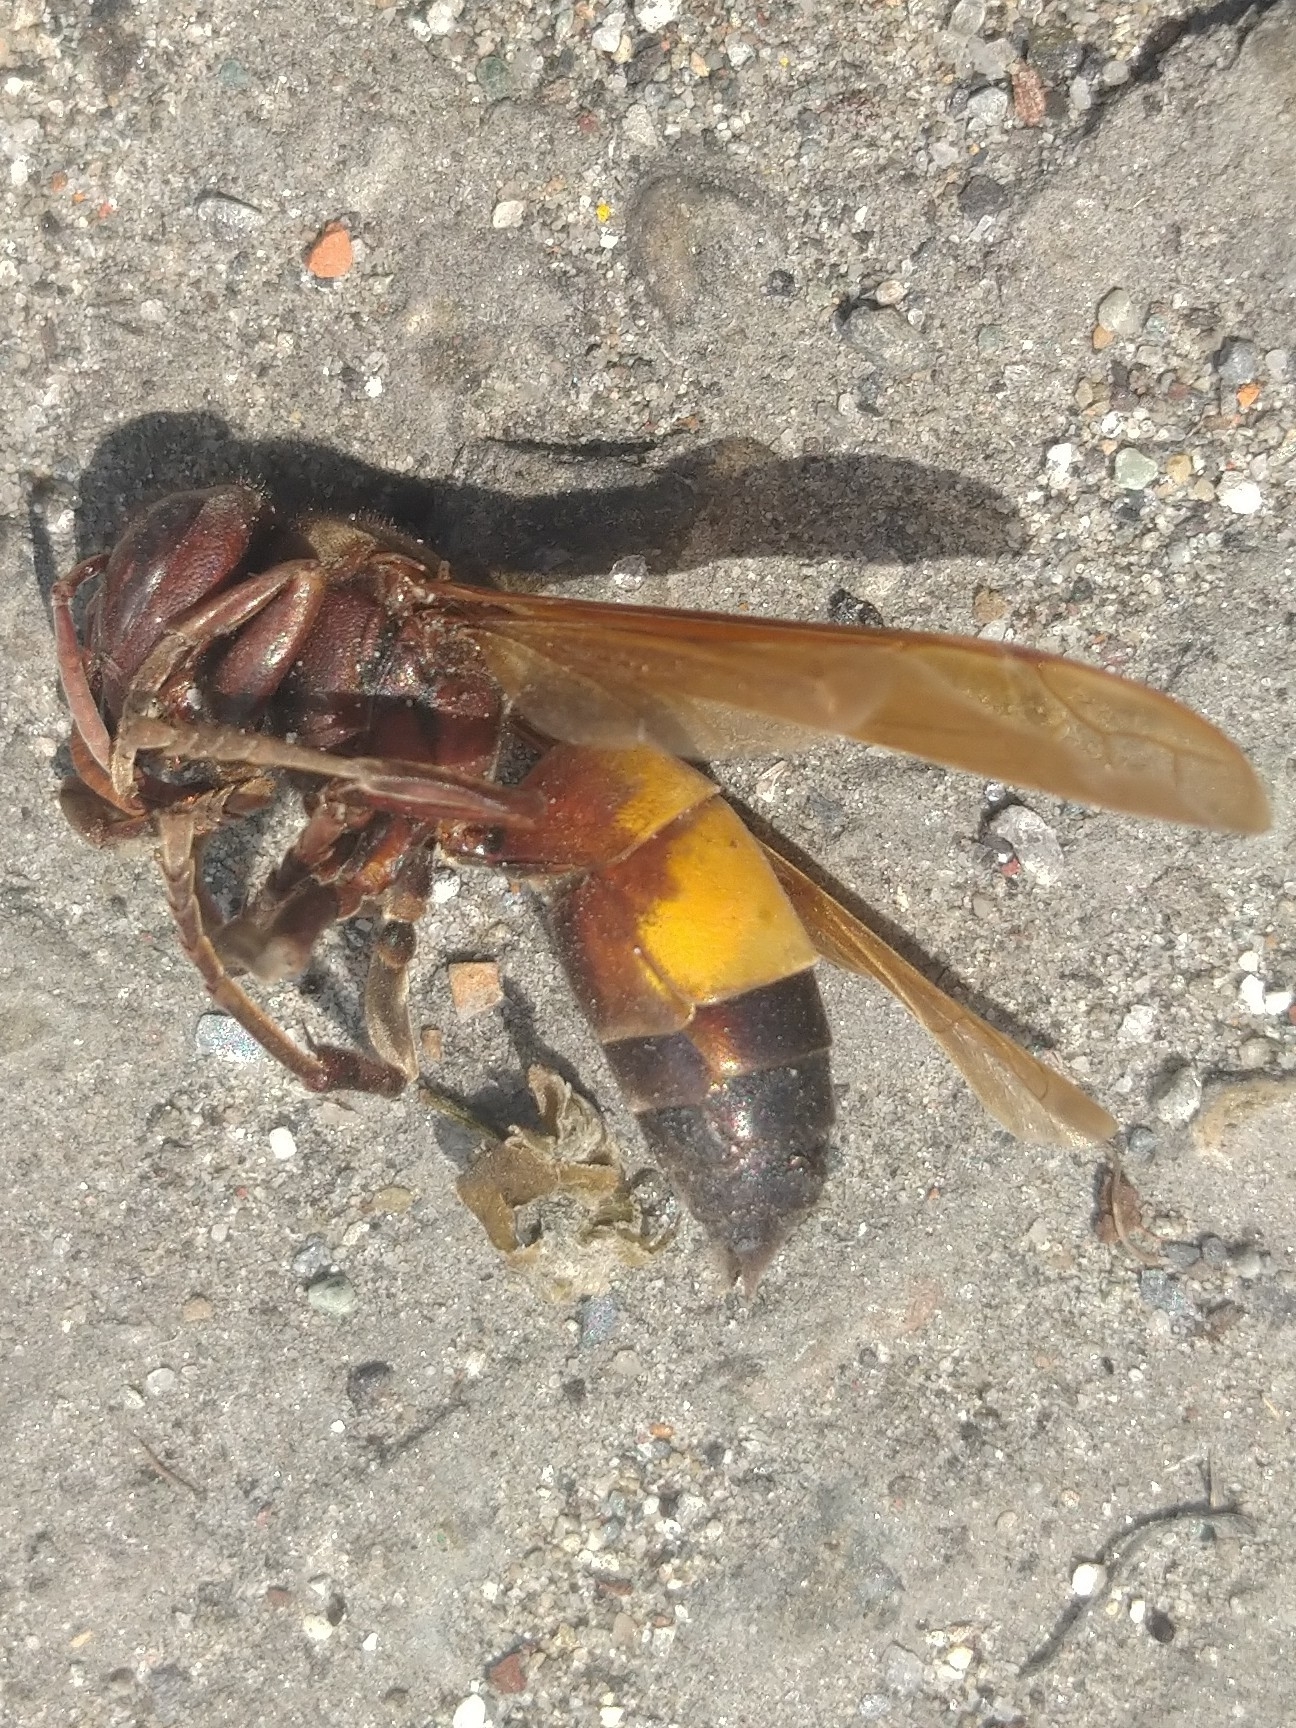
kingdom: Animalia
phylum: Arthropoda
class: Insecta
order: Hymenoptera
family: Vespidae
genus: Vespa
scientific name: Vespa affinis
